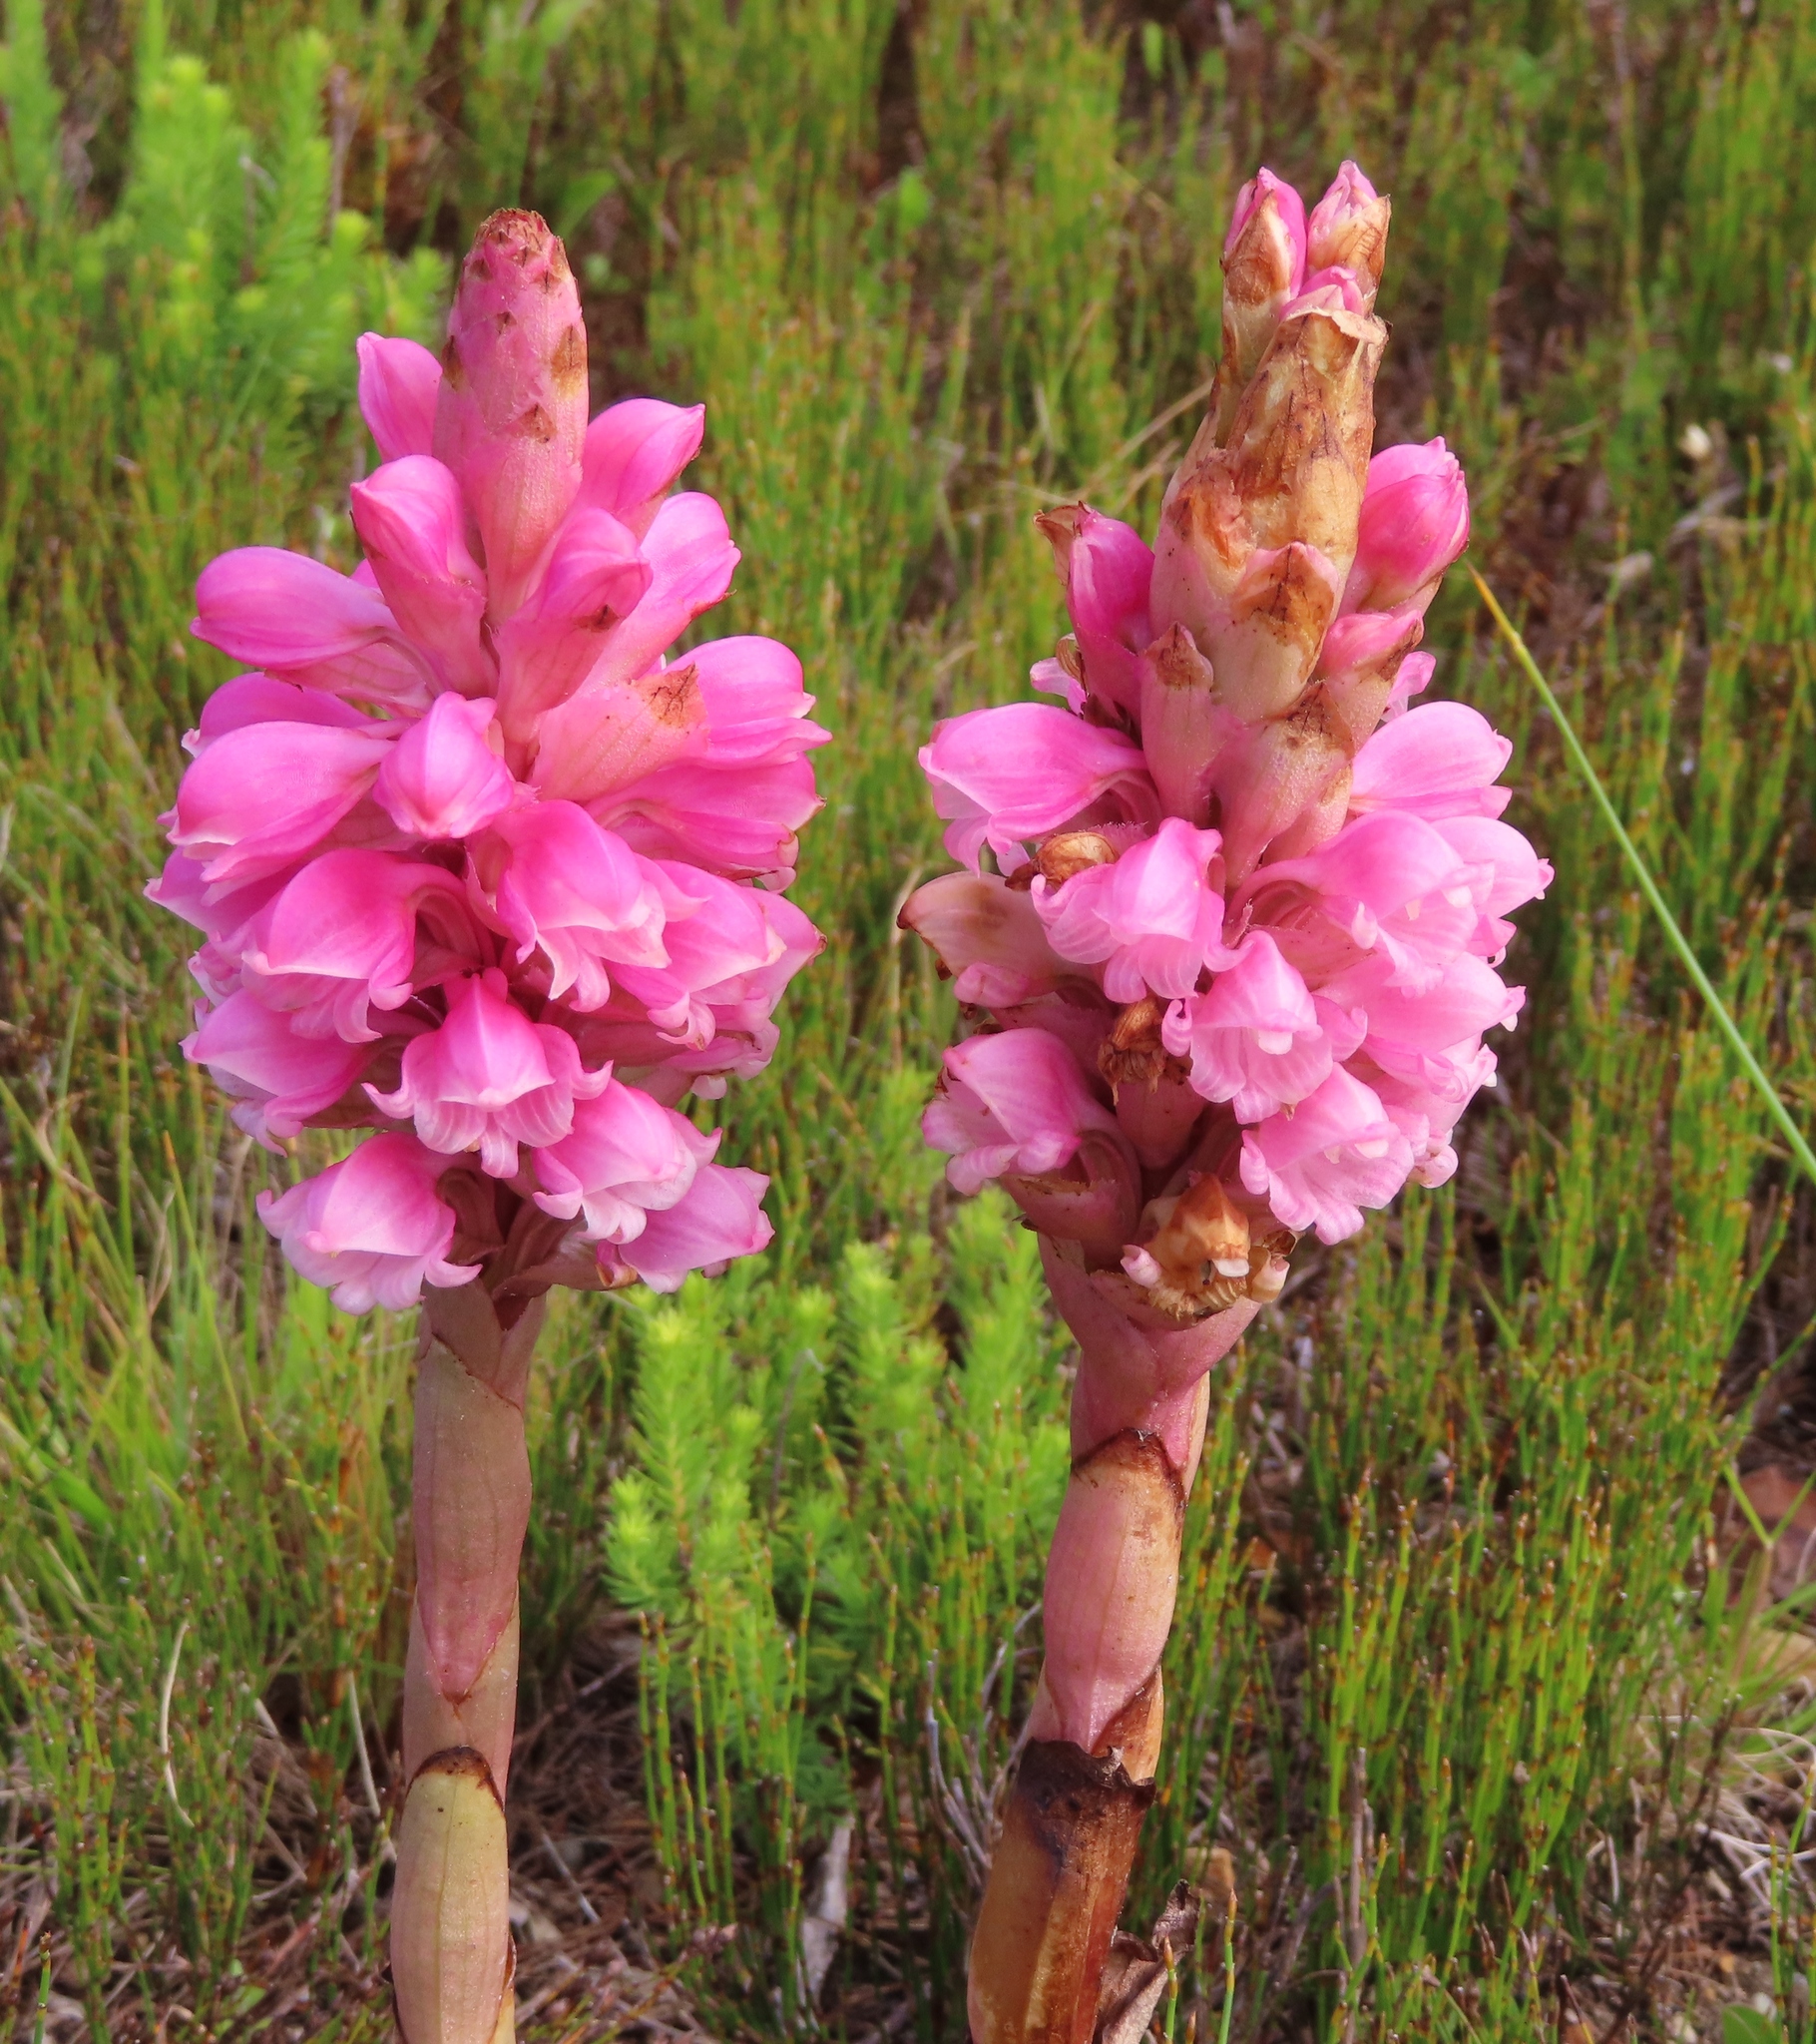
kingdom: Plantae
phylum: Tracheophyta
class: Liliopsida
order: Asparagales
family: Orchidaceae
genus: Satyrium
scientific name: Satyrium carneum
